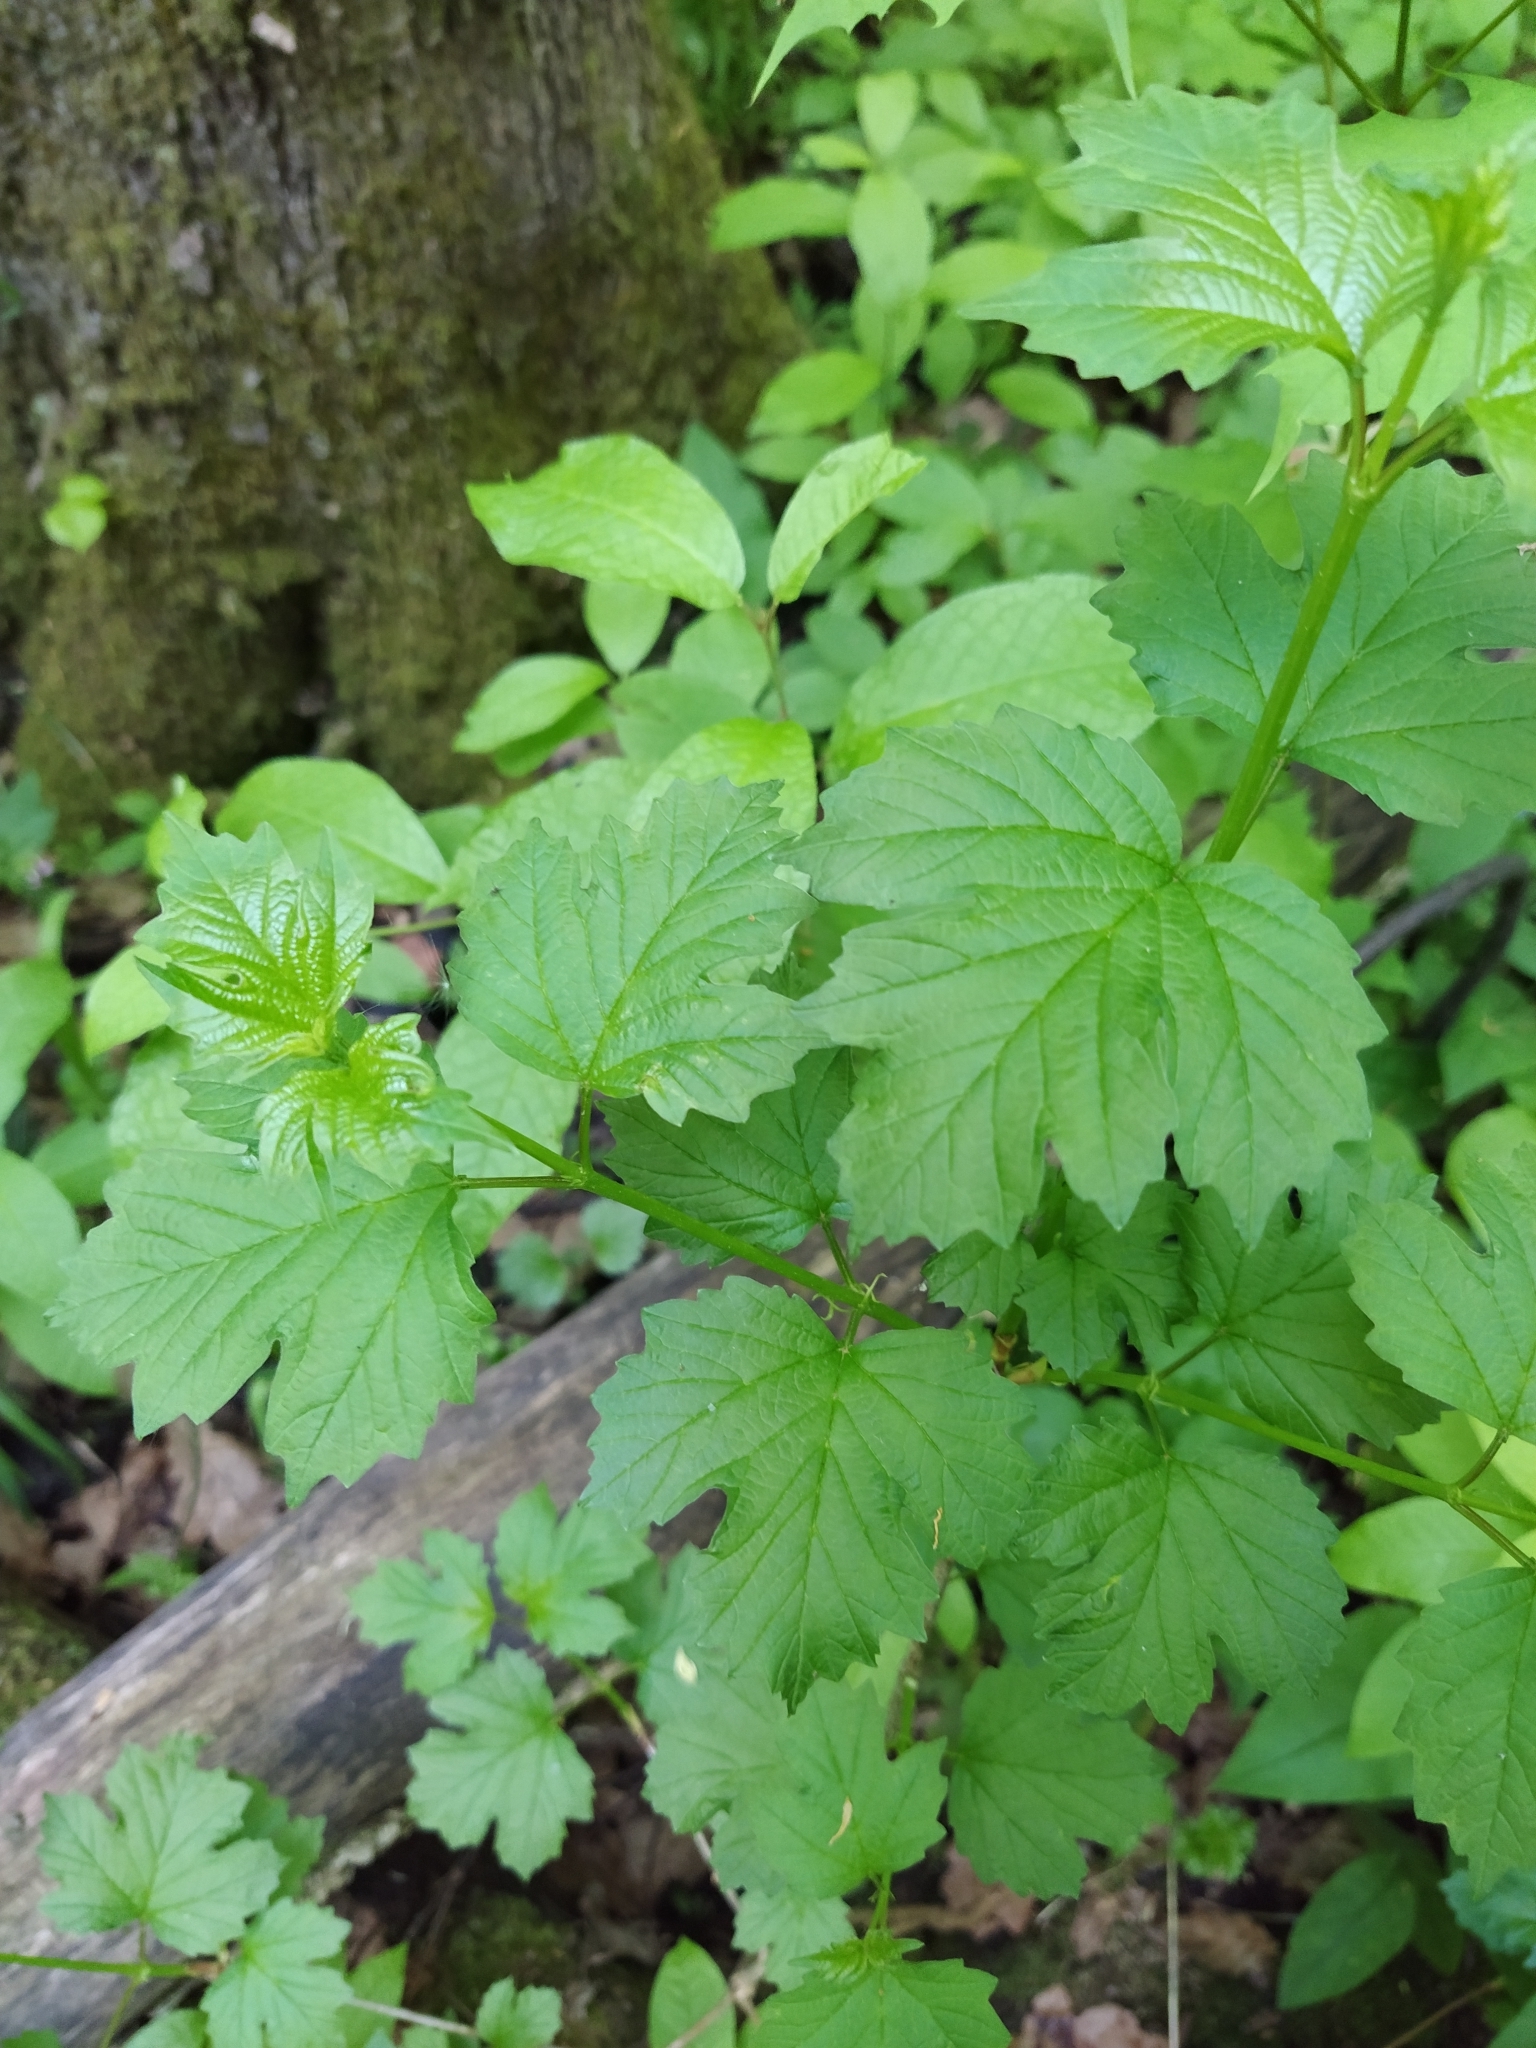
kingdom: Plantae
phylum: Tracheophyta
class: Magnoliopsida
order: Dipsacales
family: Viburnaceae
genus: Viburnum
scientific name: Viburnum opulus
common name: Guelder-rose
